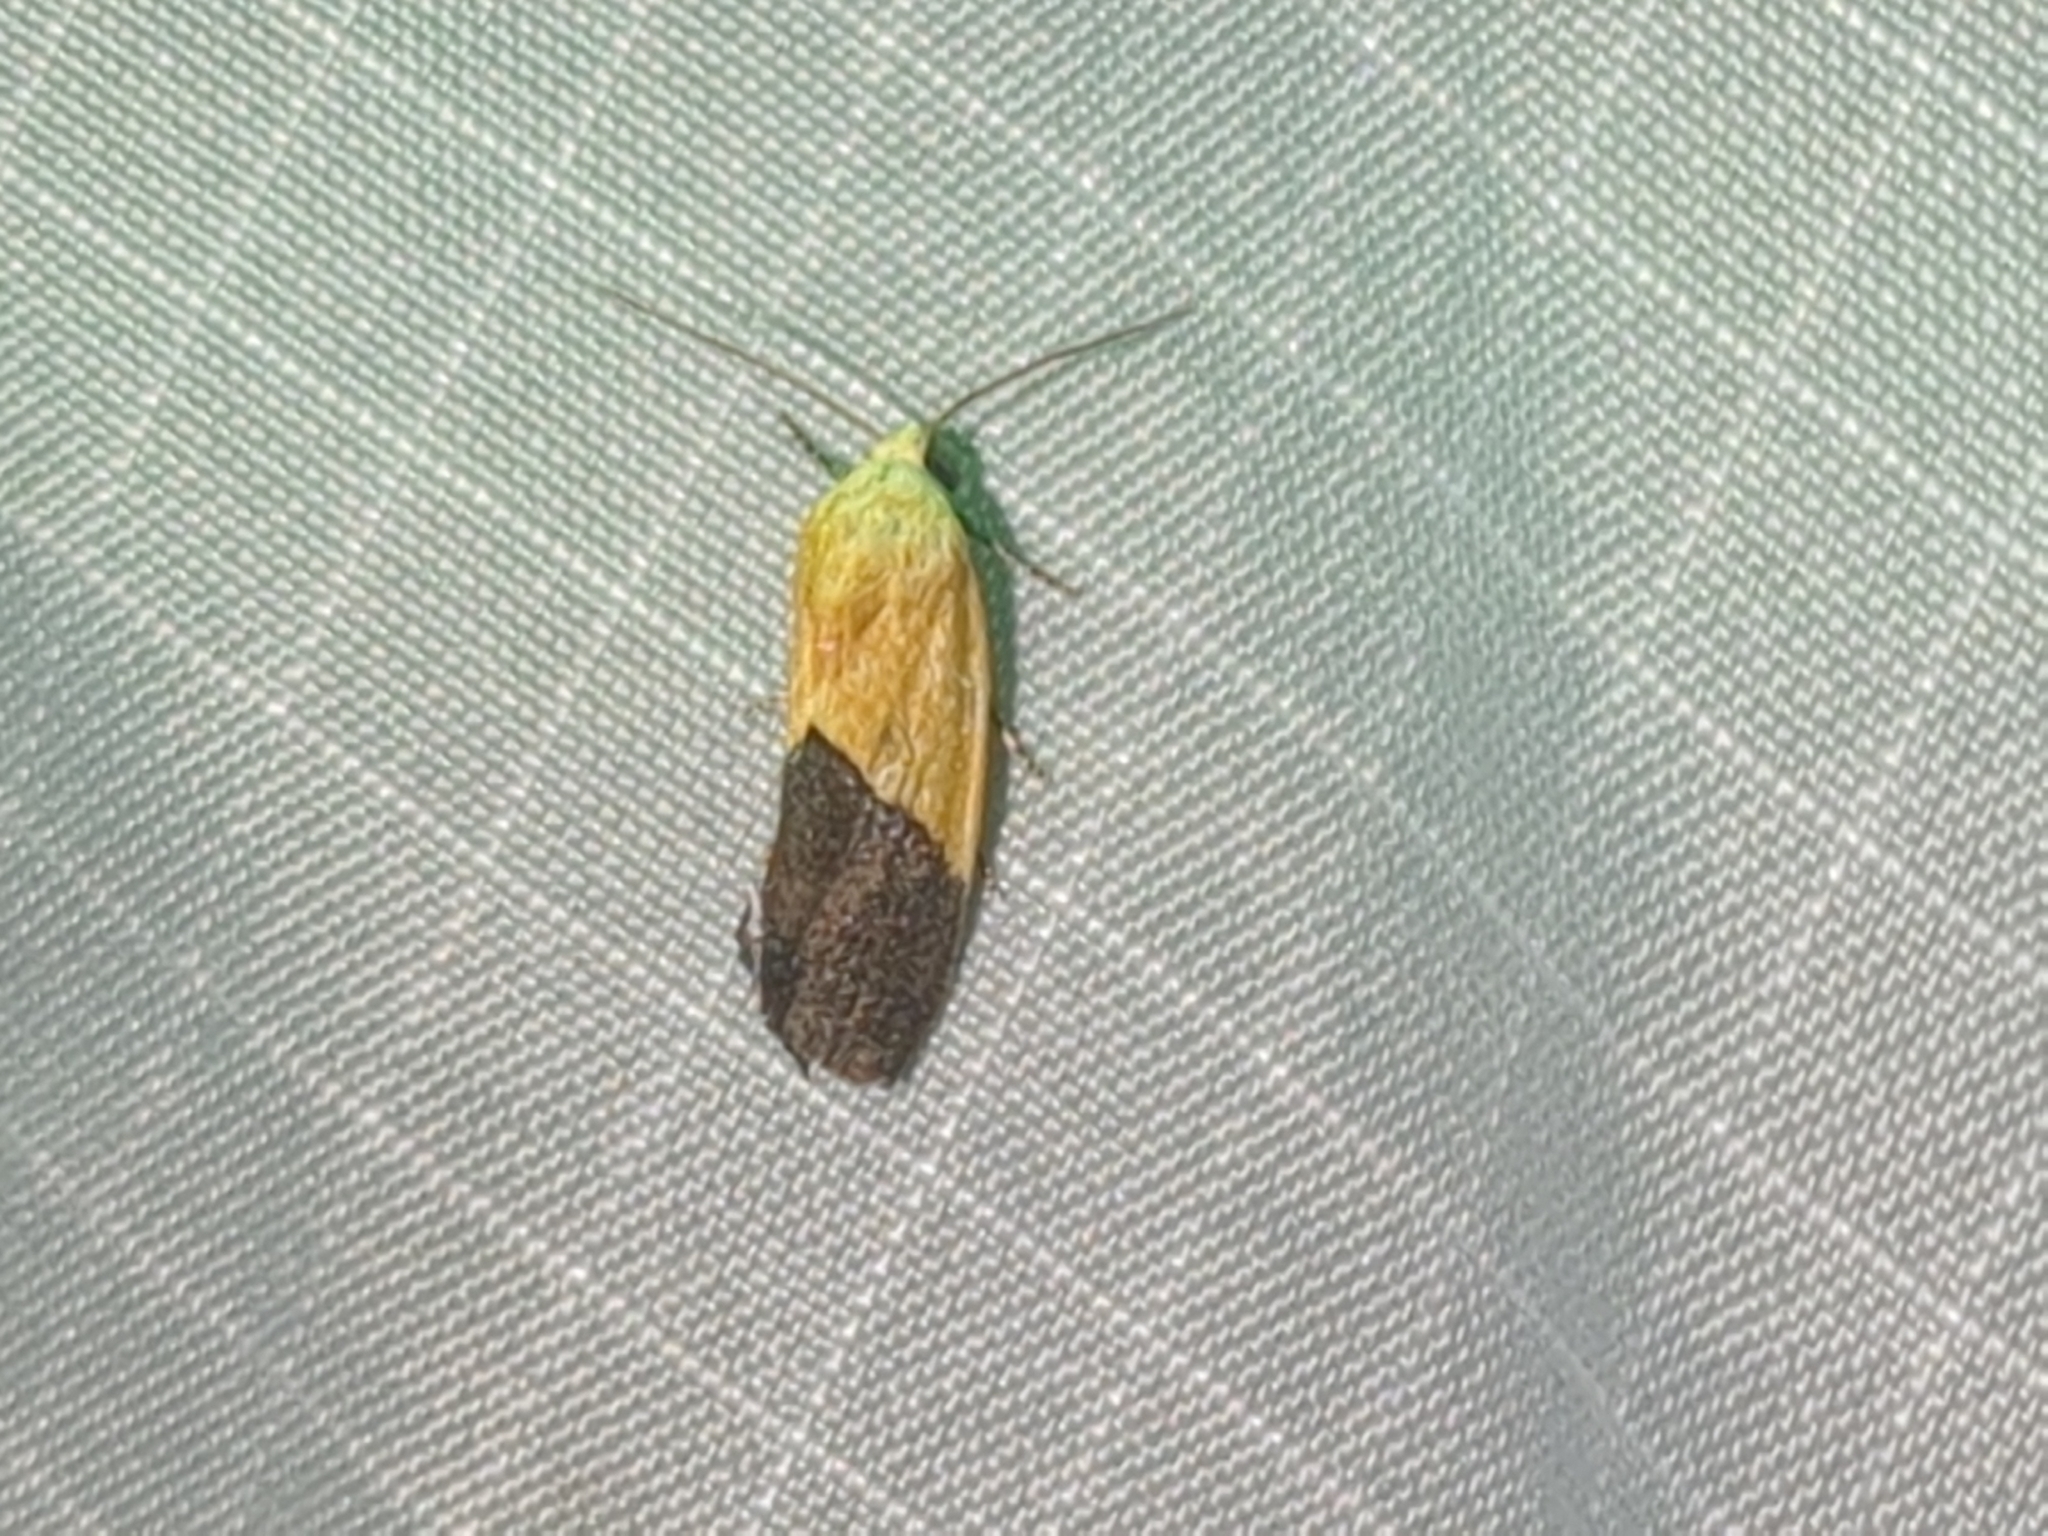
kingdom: Animalia
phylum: Arthropoda
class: Insecta
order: Lepidoptera
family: Noctuidae
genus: Acontia
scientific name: Acontia semiflava
